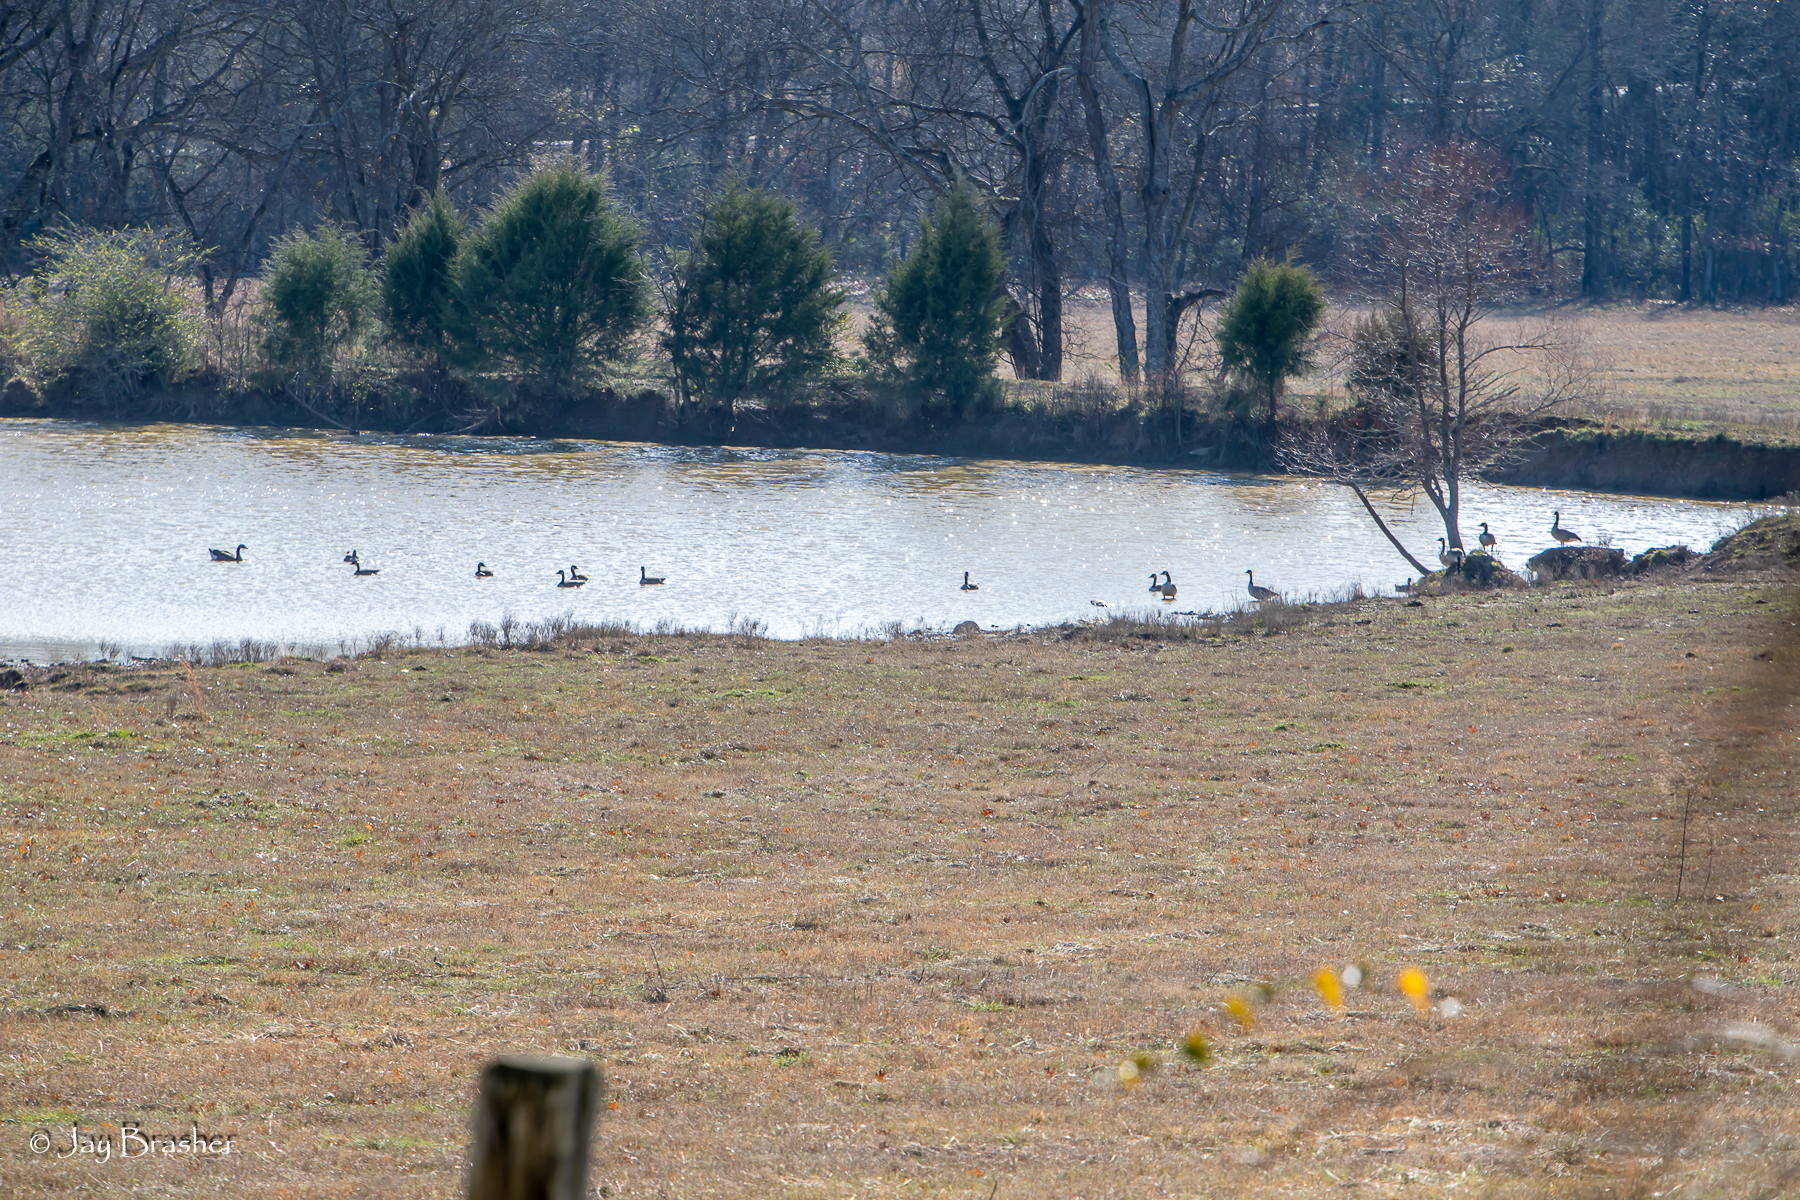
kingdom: Animalia
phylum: Chordata
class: Aves
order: Anseriformes
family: Anatidae
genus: Branta
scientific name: Branta canadensis
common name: Canada goose
